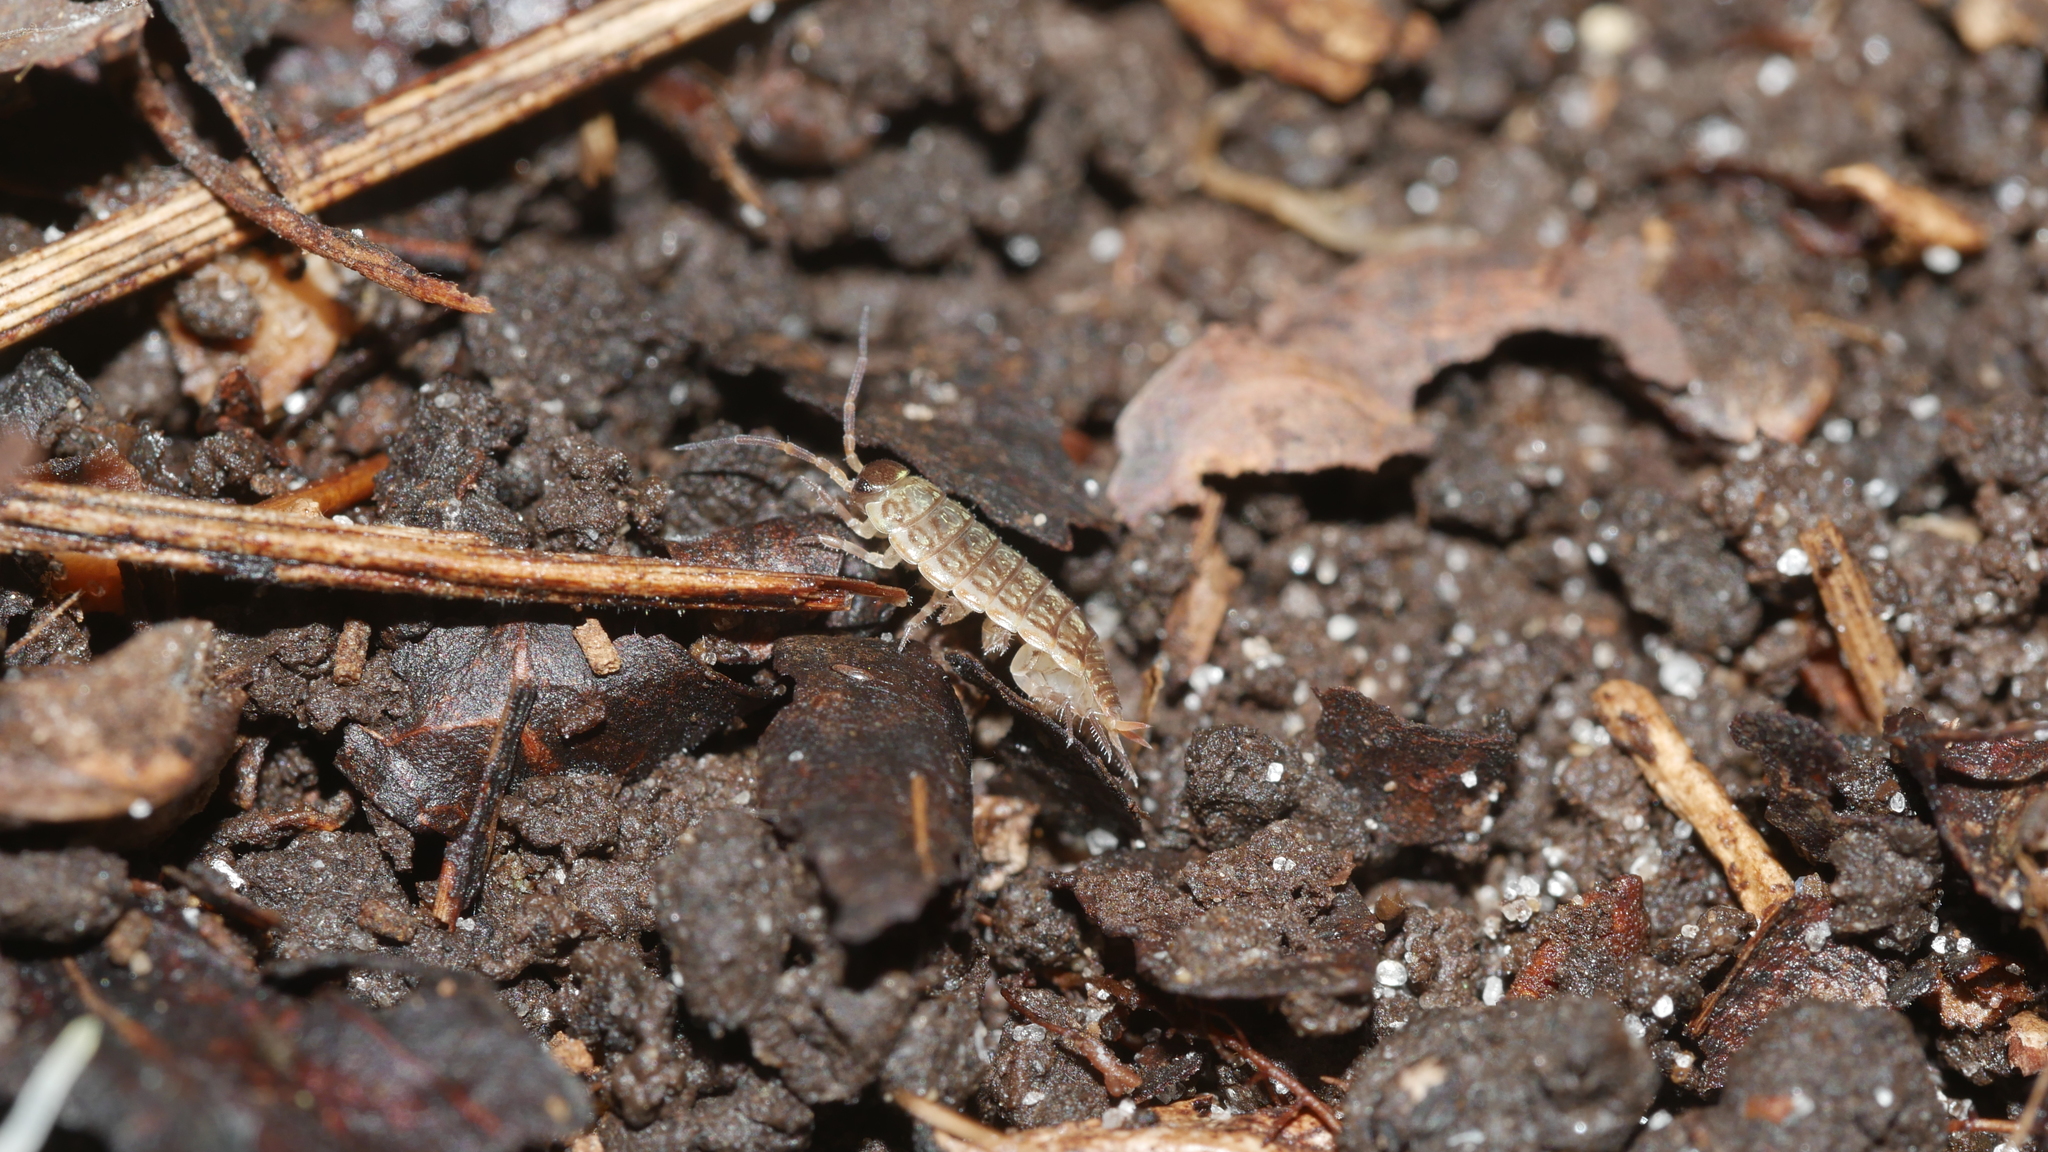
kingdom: Animalia
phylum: Arthropoda
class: Malacostraca
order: Isopoda
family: Philosciidae
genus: Philoscia
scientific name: Philoscia muscorum
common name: Common striped woodlouse
